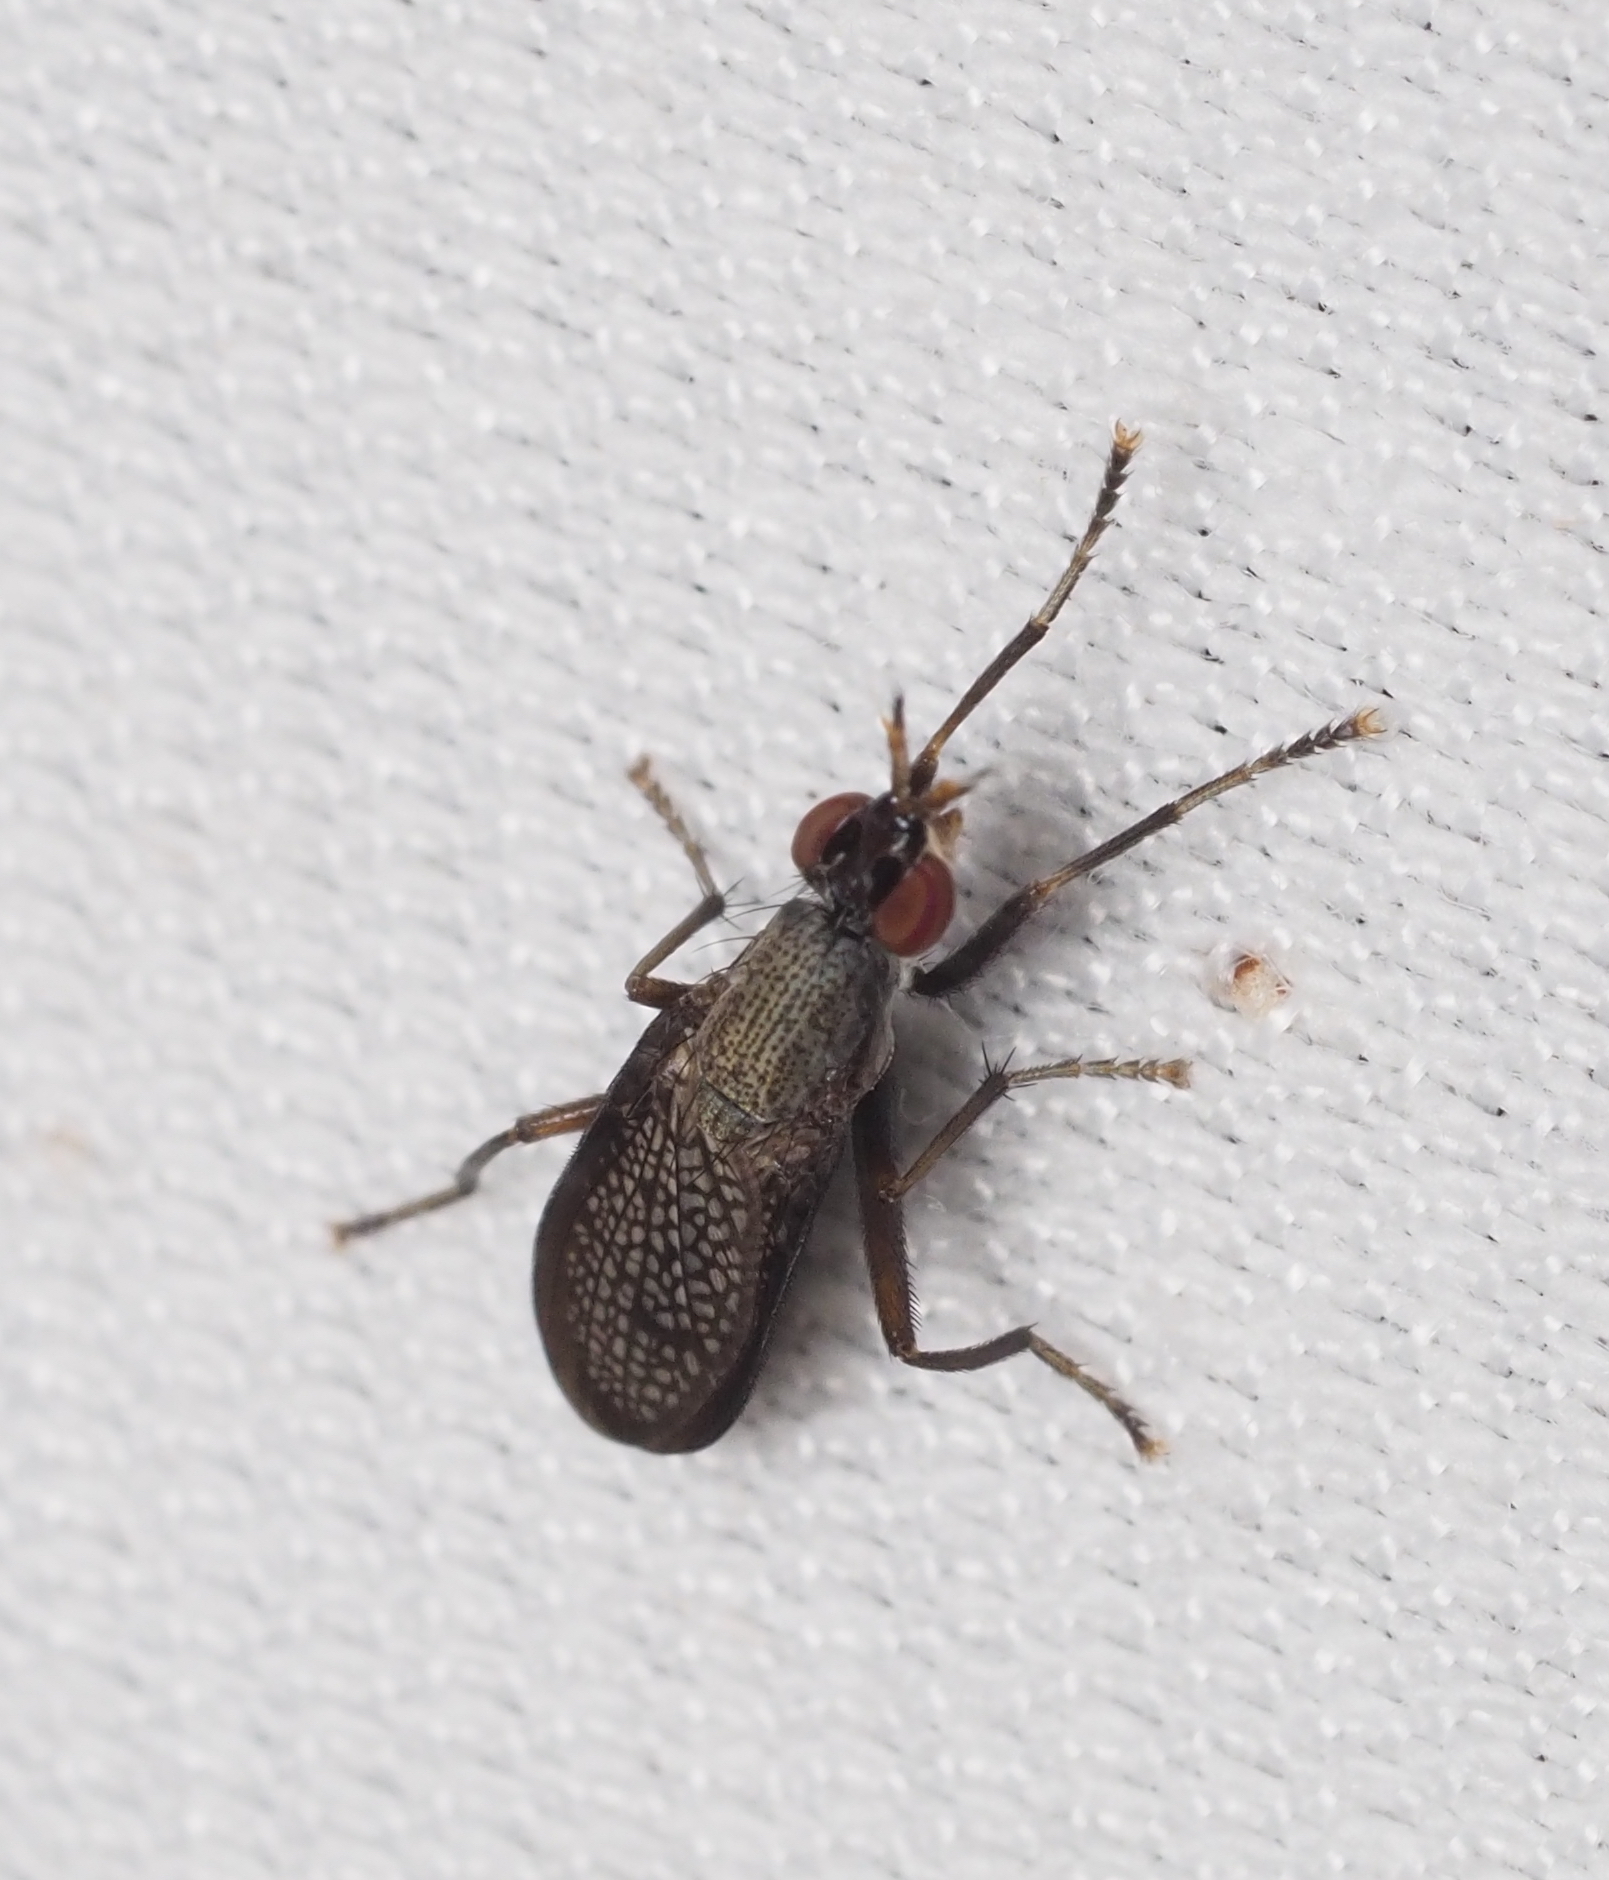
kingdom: Animalia
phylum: Arthropoda
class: Insecta
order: Diptera
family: Sciomyzidae
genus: Coremacera
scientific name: Coremacera marginata
